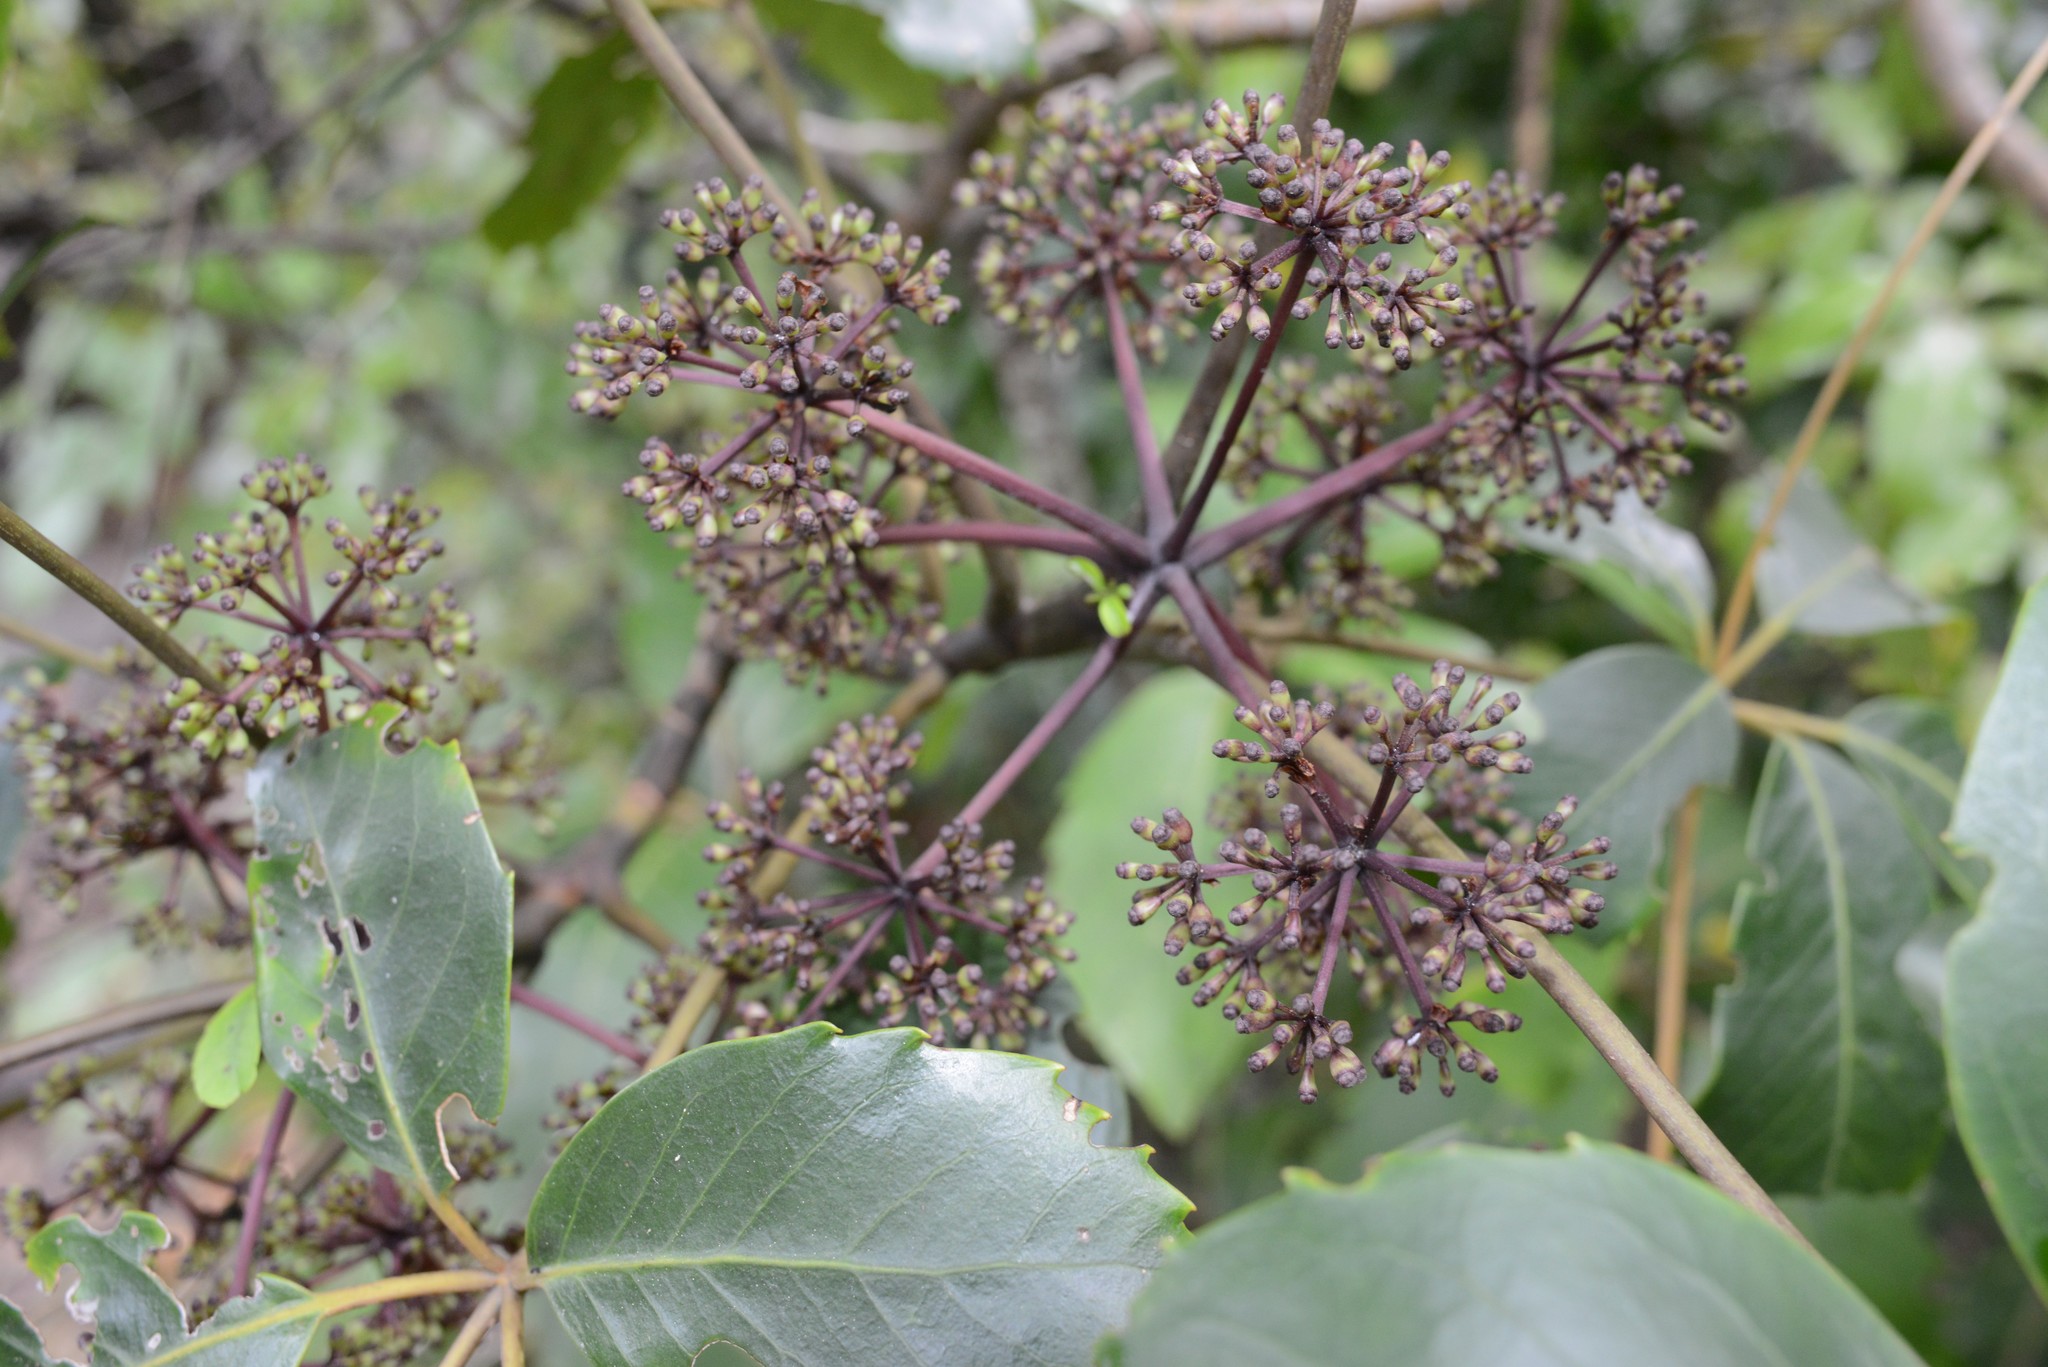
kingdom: Plantae
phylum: Tracheophyta
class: Magnoliopsida
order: Apiales
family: Araliaceae
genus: Neopanax
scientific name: Neopanax arboreus
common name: Five-fingers
